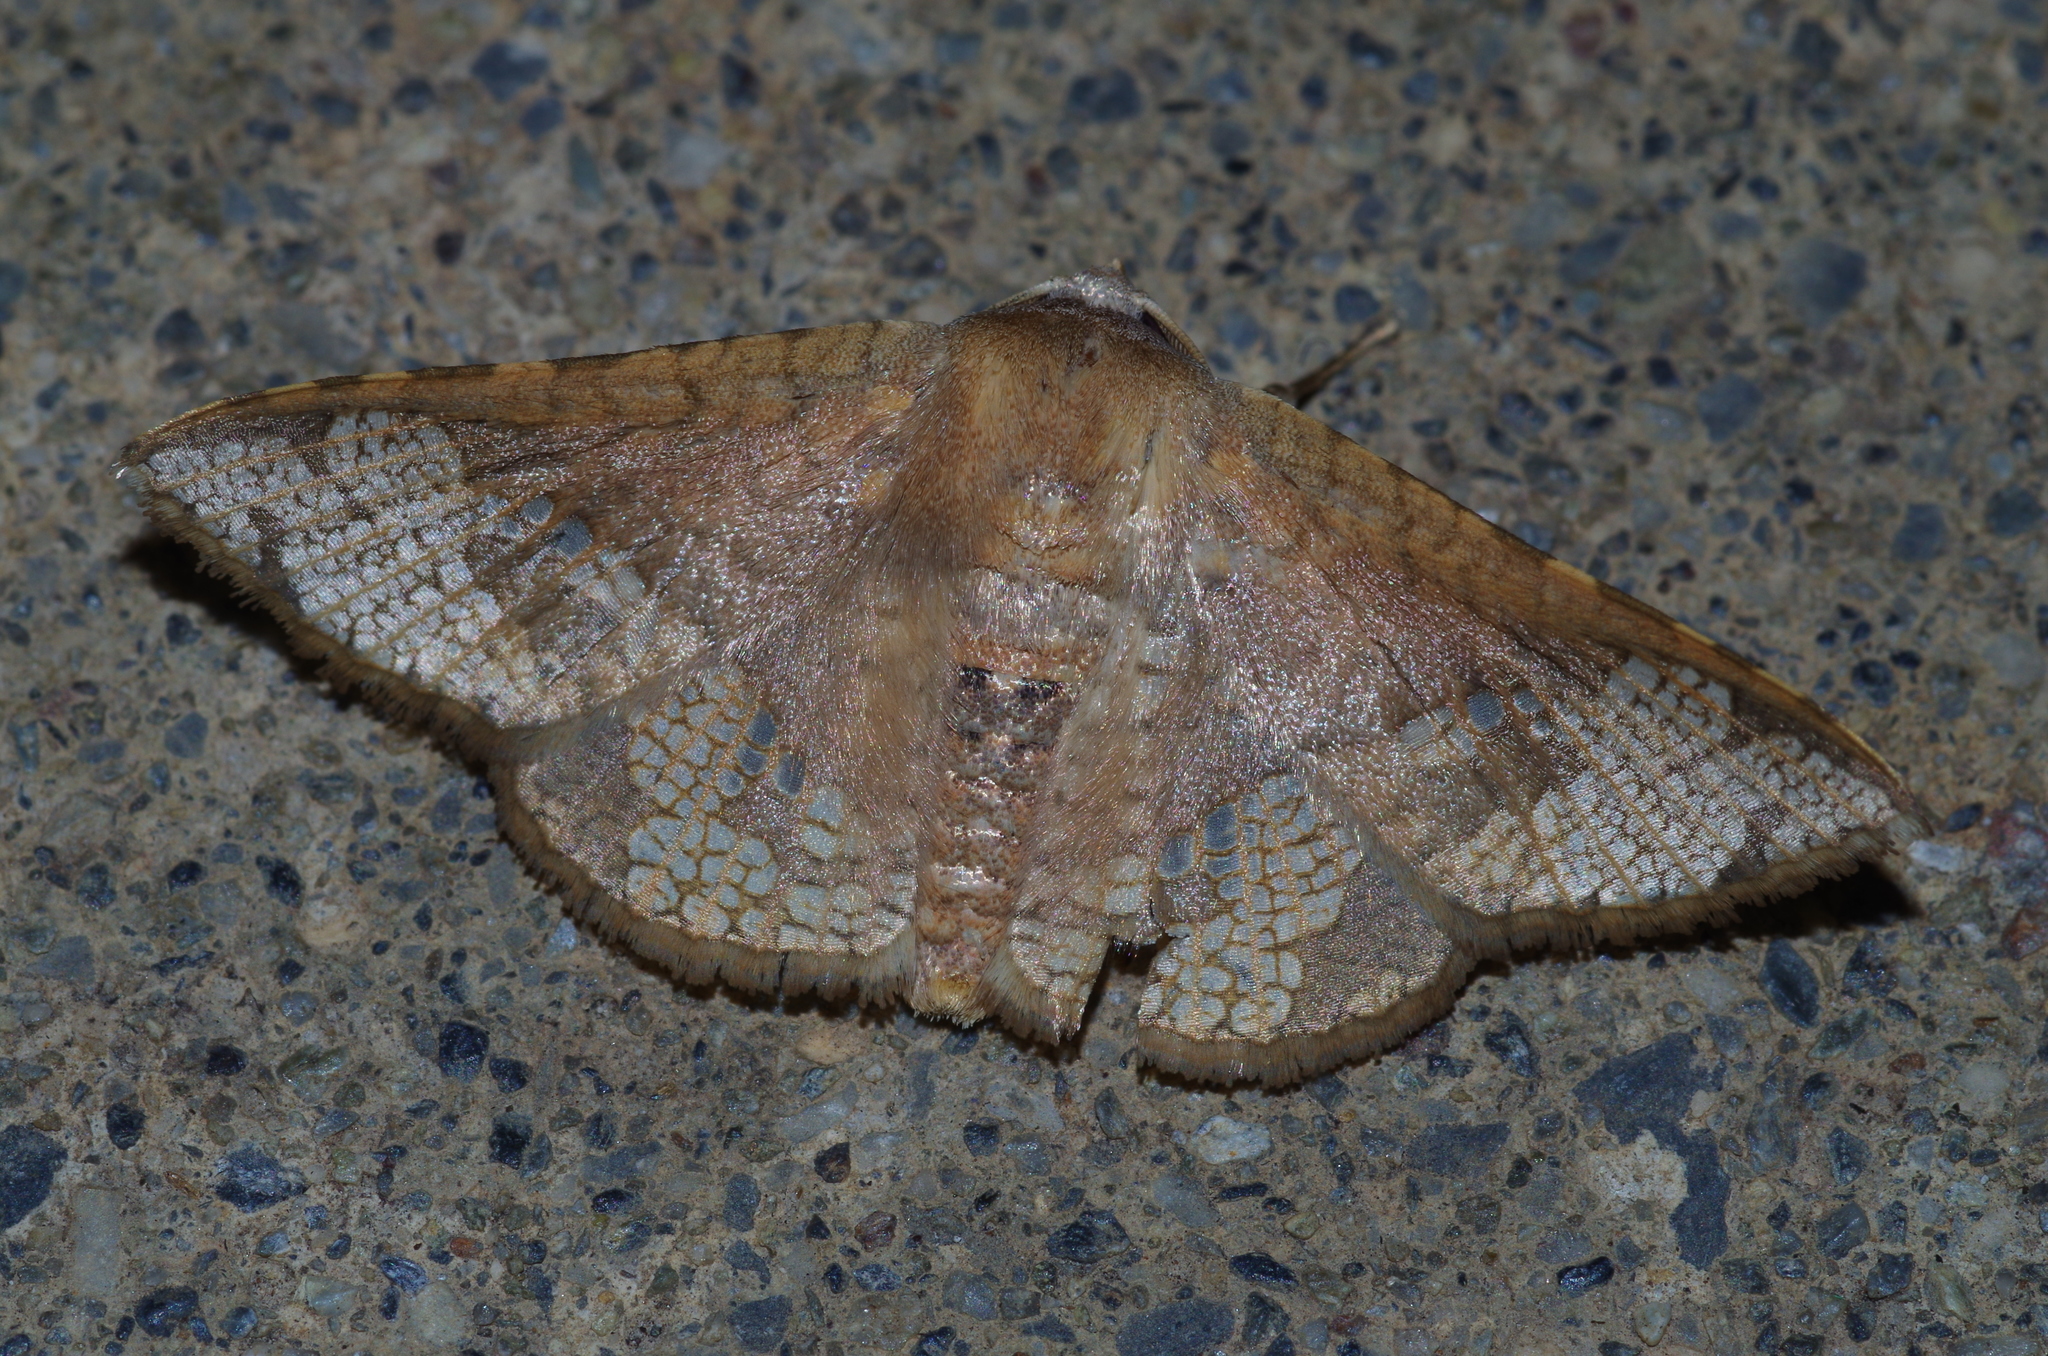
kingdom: Animalia
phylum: Arthropoda
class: Insecta
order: Lepidoptera
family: Thyrididae
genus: Canaea
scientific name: Canaea ryukyuensis
